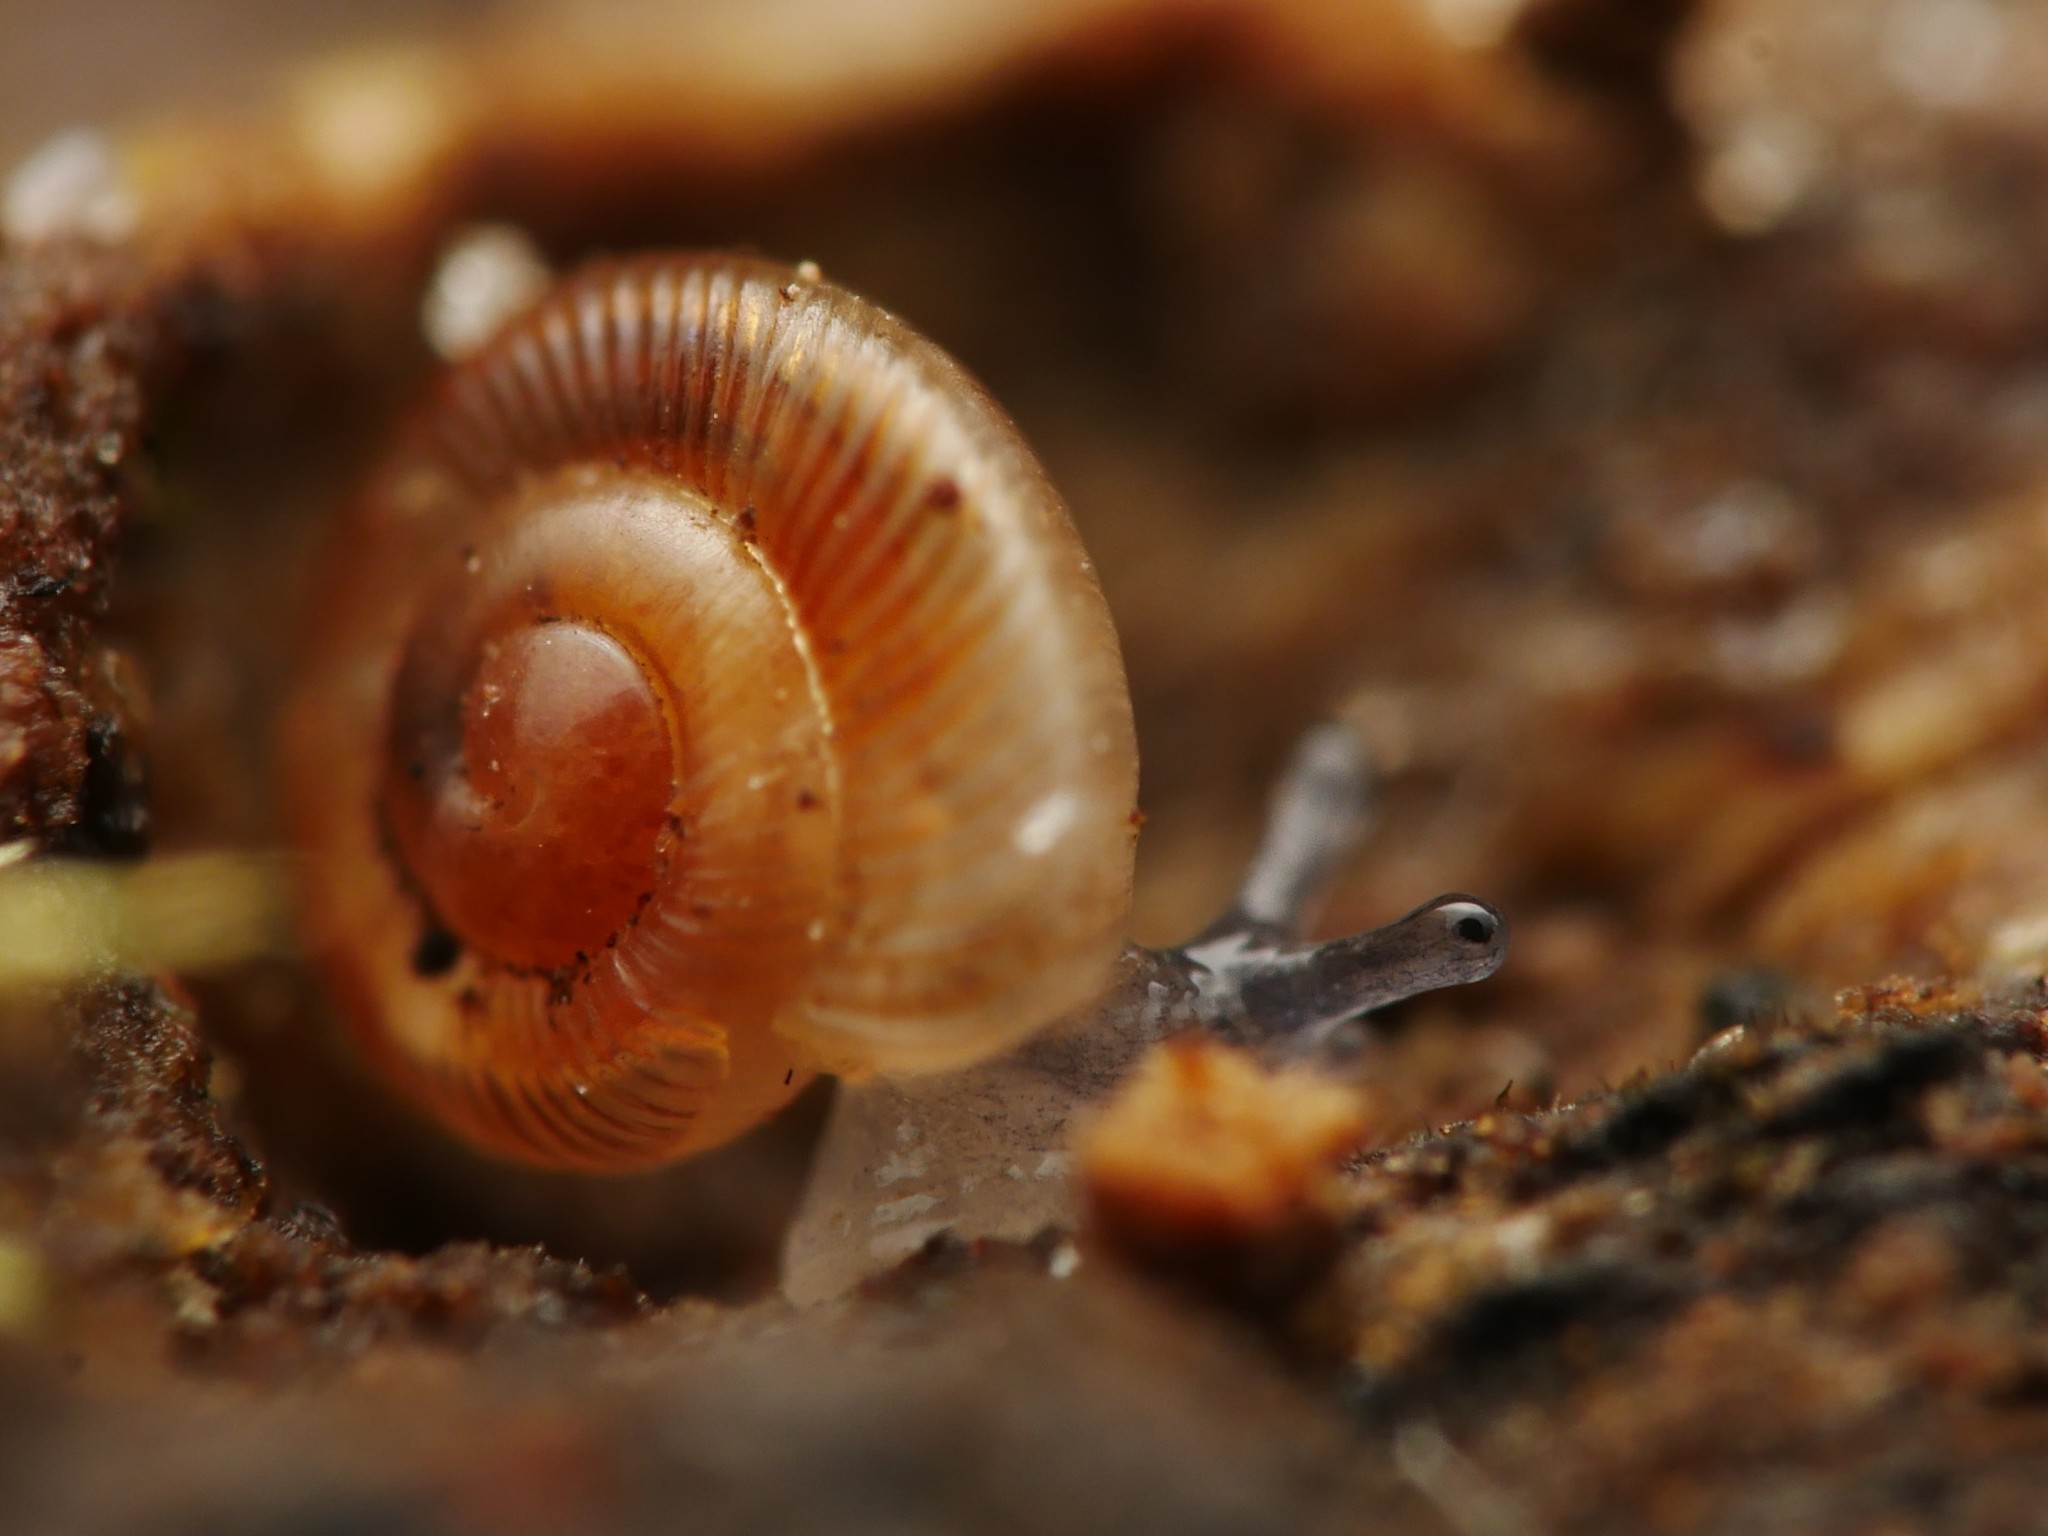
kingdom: Animalia
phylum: Mollusca
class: Gastropoda
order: Stylommatophora
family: Discidae
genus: Discus
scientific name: Discus rotundatus
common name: Rounded snail
